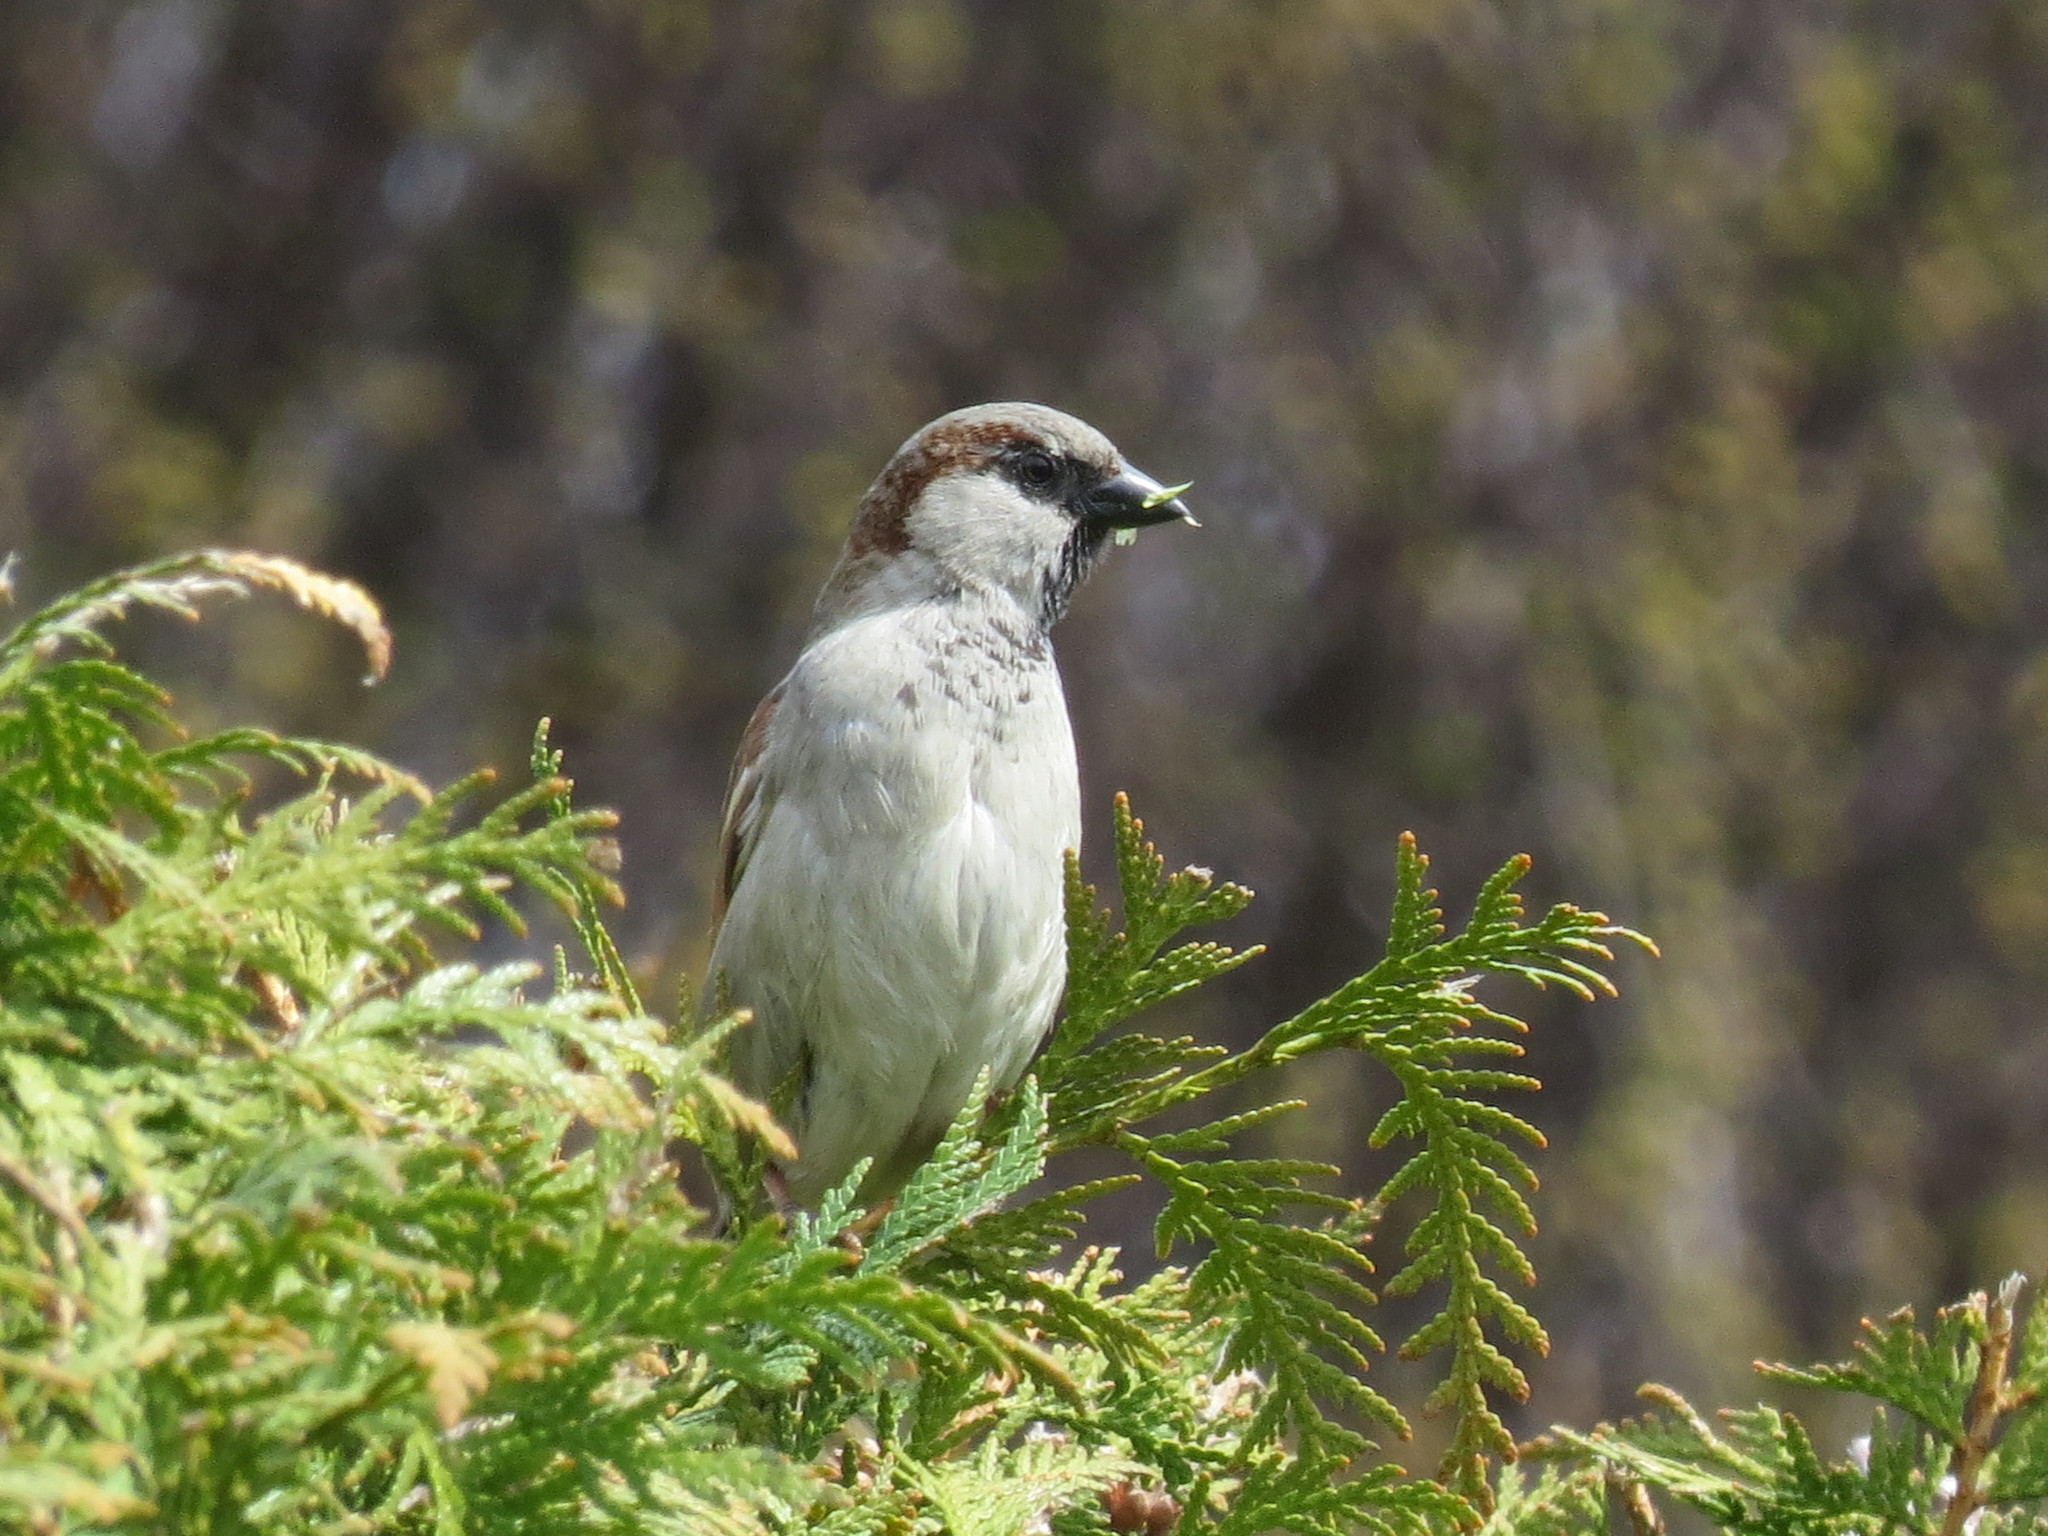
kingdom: Animalia
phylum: Chordata
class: Aves
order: Passeriformes
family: Passeridae
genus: Passer
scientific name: Passer domesticus
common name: House sparrow
